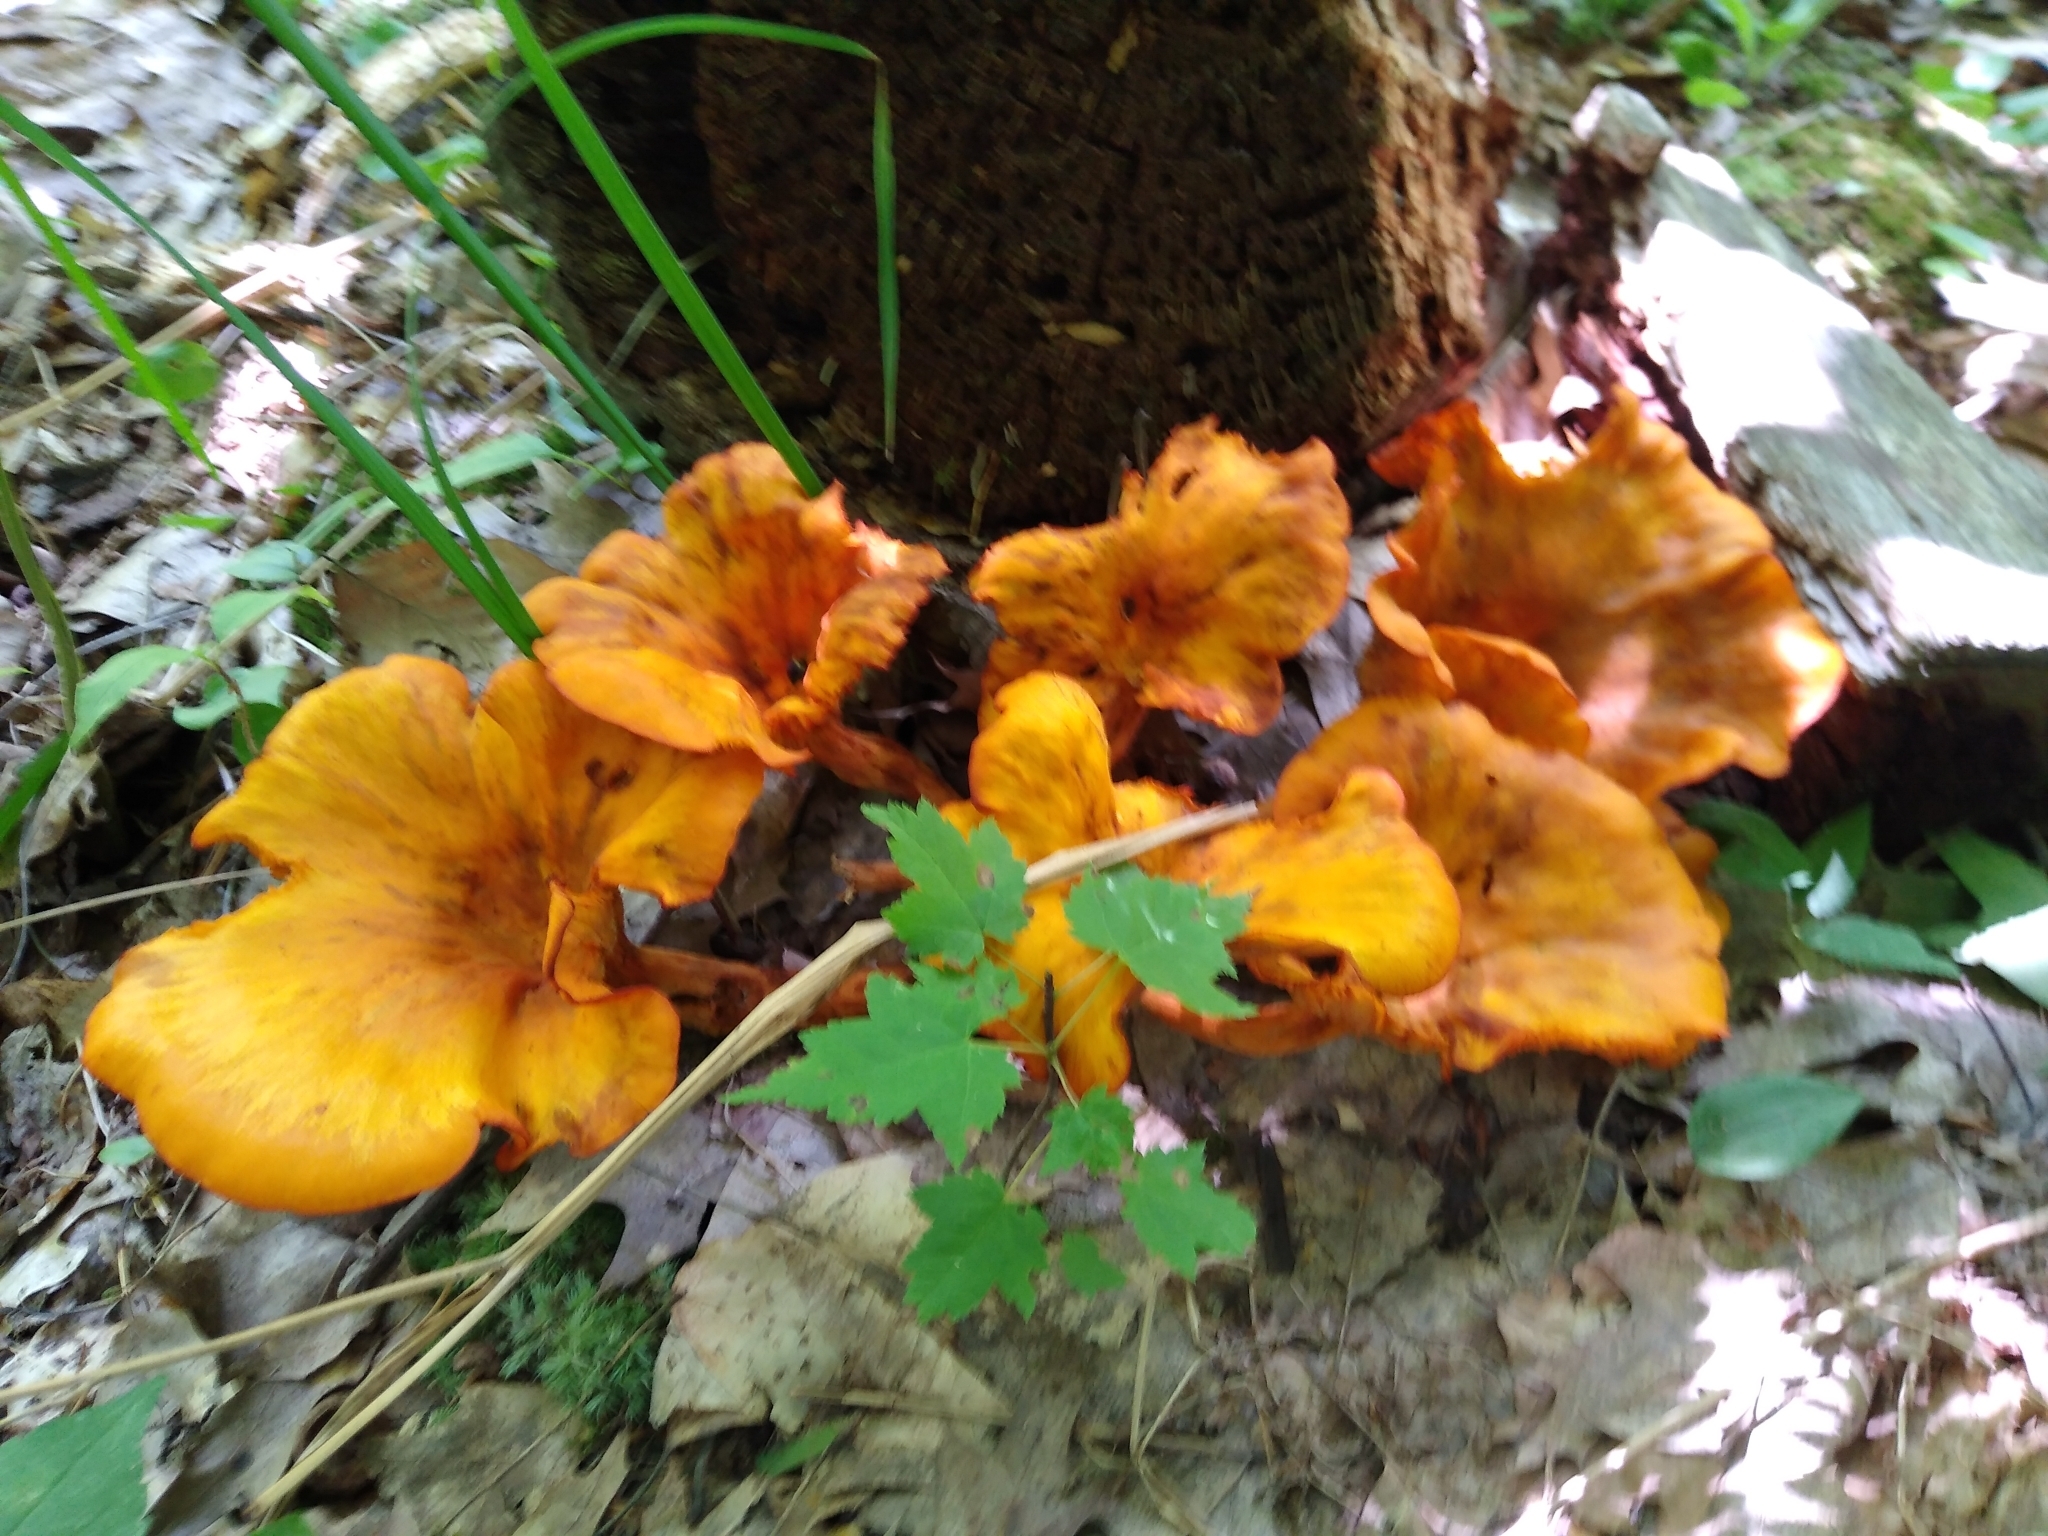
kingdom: Fungi
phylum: Basidiomycota
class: Agaricomycetes
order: Agaricales
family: Omphalotaceae
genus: Omphalotus
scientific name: Omphalotus illudens
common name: Jack o lantern
